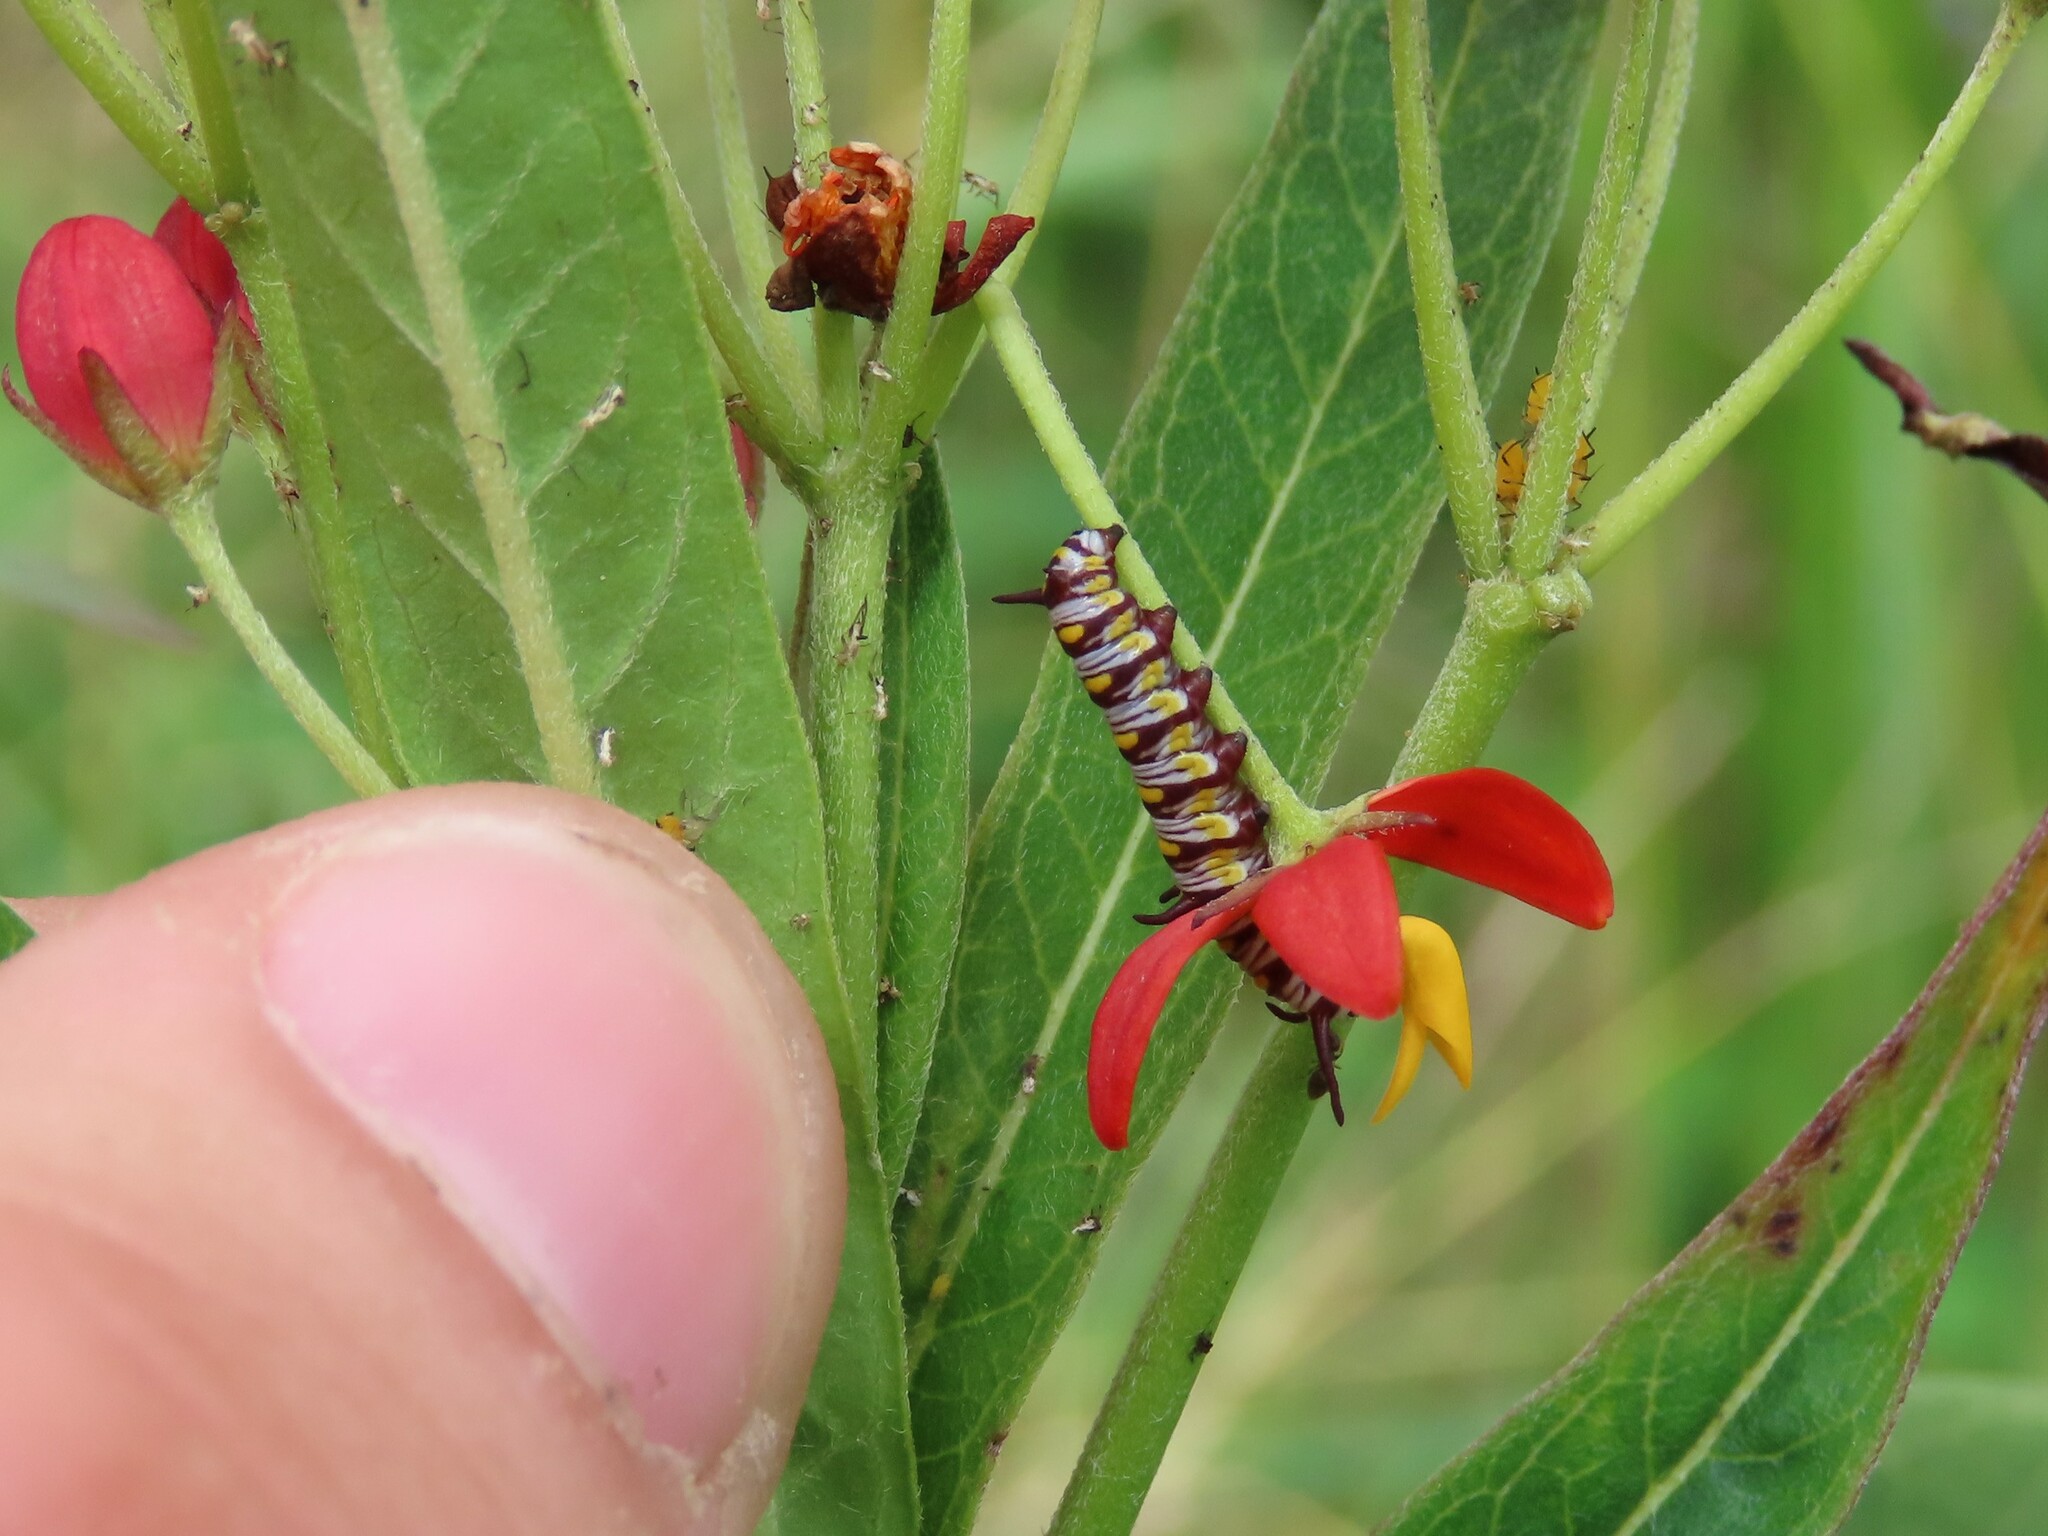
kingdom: Animalia
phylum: Arthropoda
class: Insecta
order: Lepidoptera
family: Nymphalidae
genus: Danaus
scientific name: Danaus gilippus
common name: Queen
